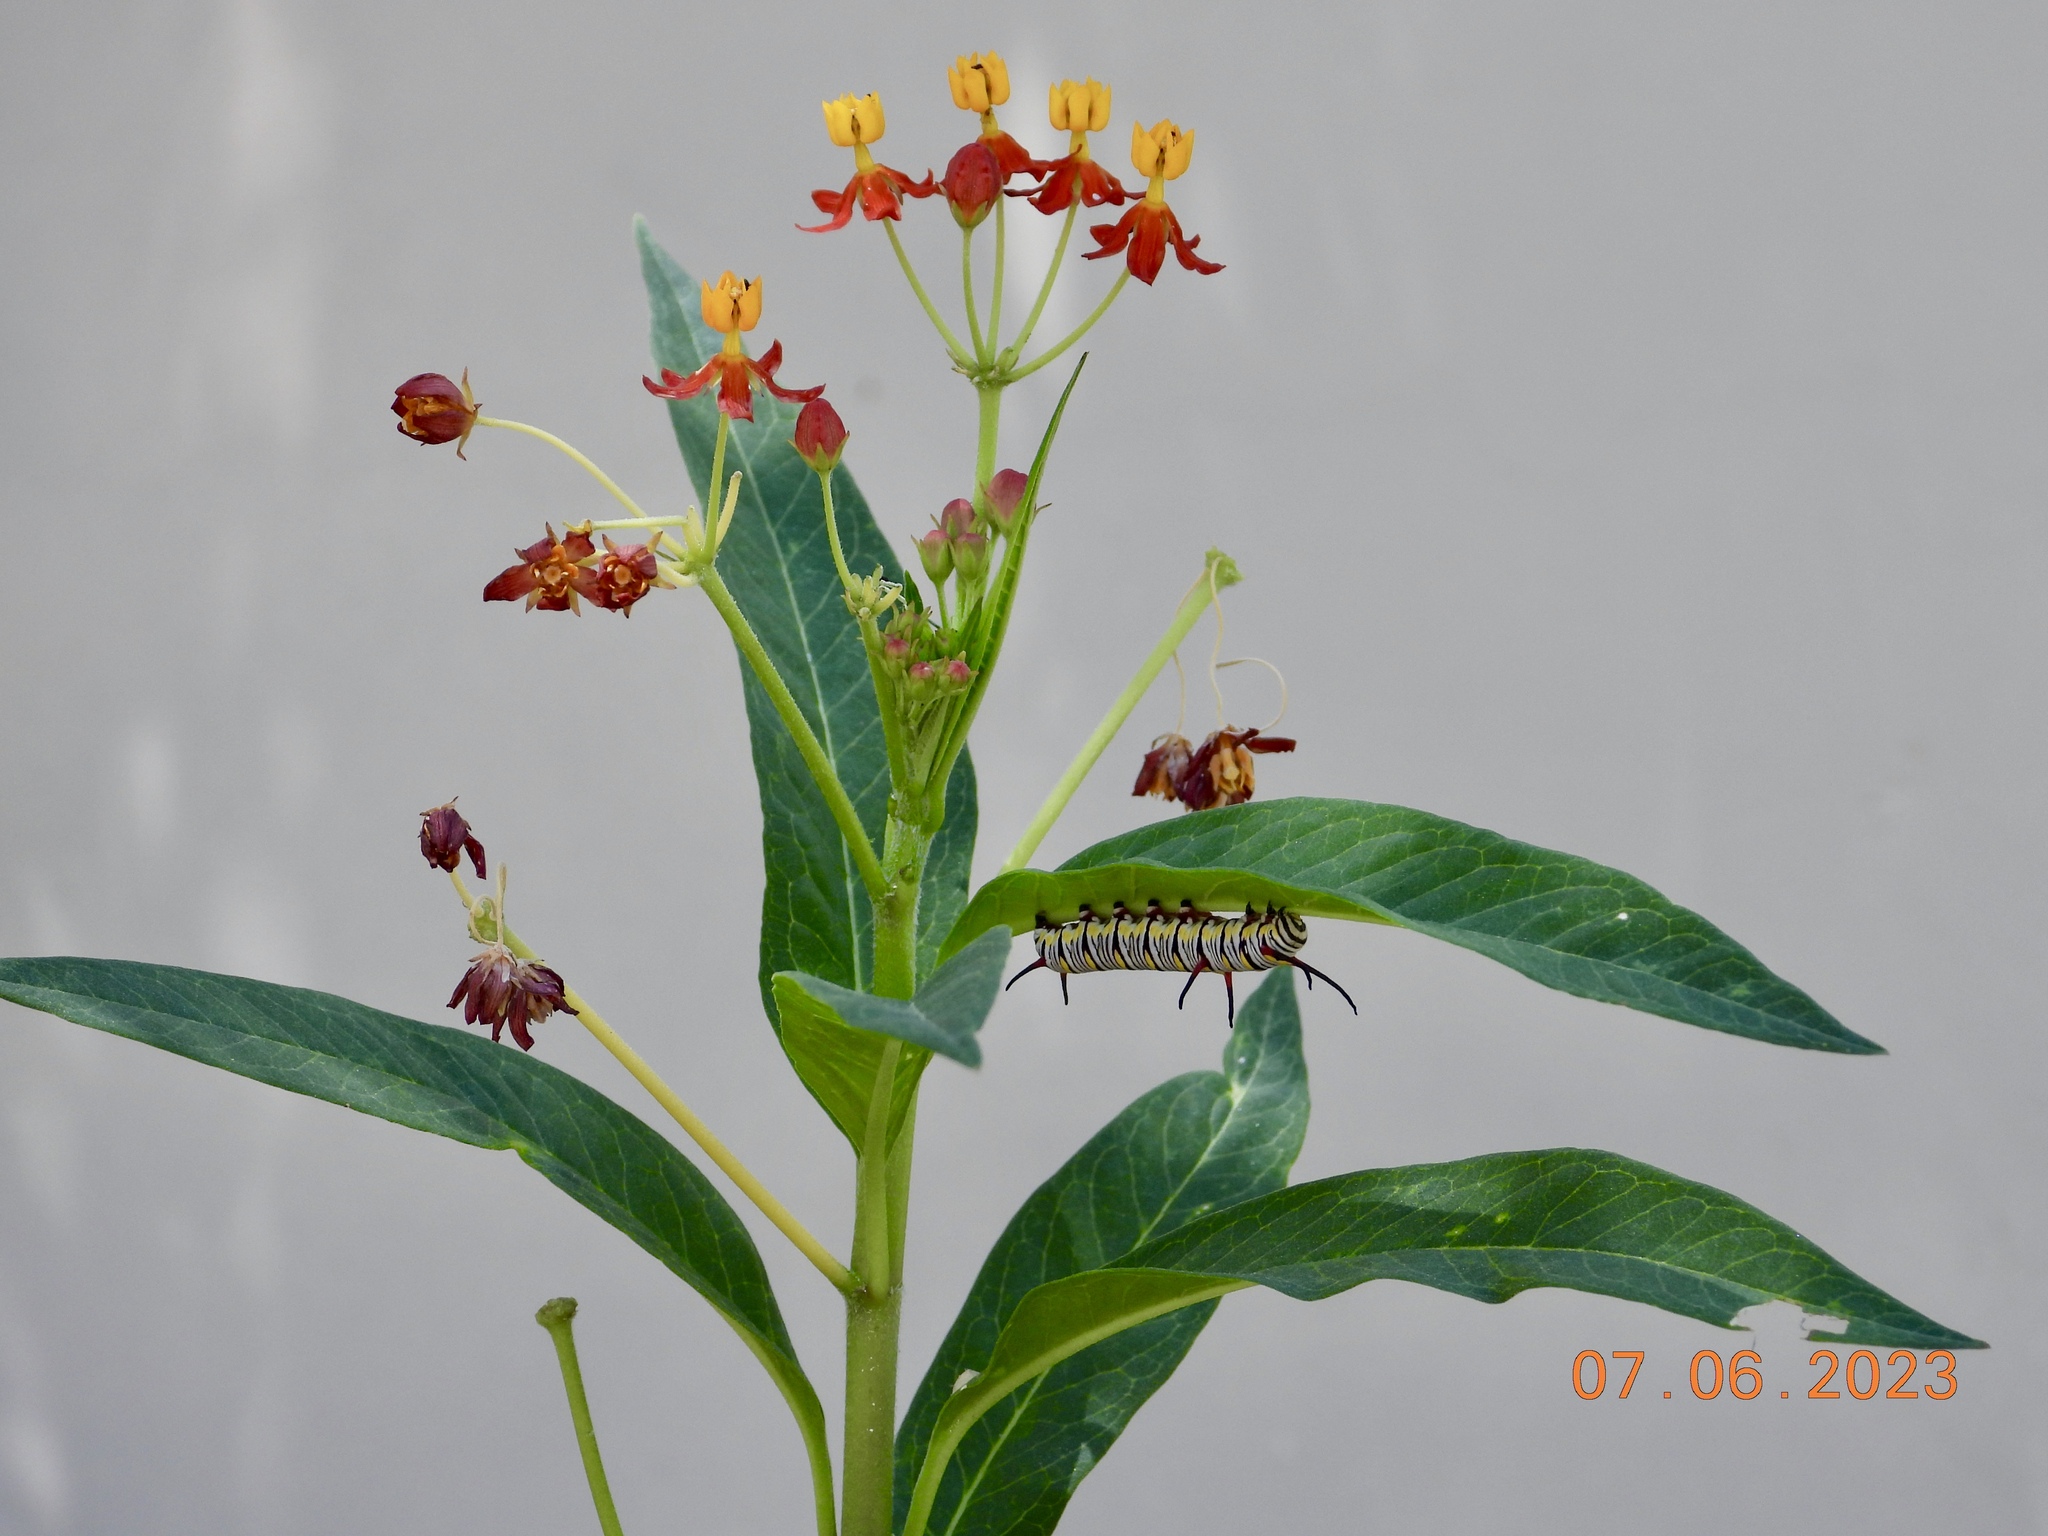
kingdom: Animalia
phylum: Arthropoda
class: Insecta
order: Lepidoptera
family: Nymphalidae
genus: Danaus
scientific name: Danaus gilippus
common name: Queen
